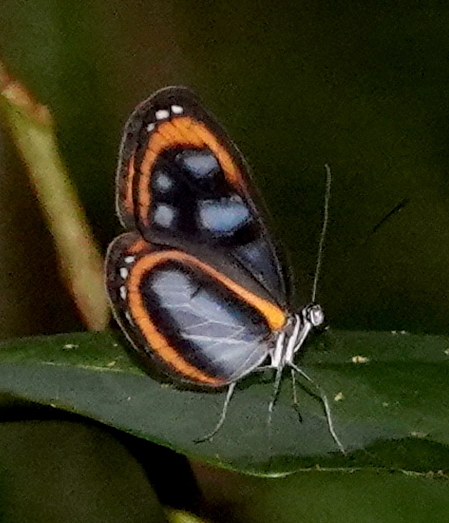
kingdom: Animalia
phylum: Arthropoda
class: Insecta
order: Lepidoptera
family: Nymphalidae
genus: Oleria
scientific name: Oleria agarista
